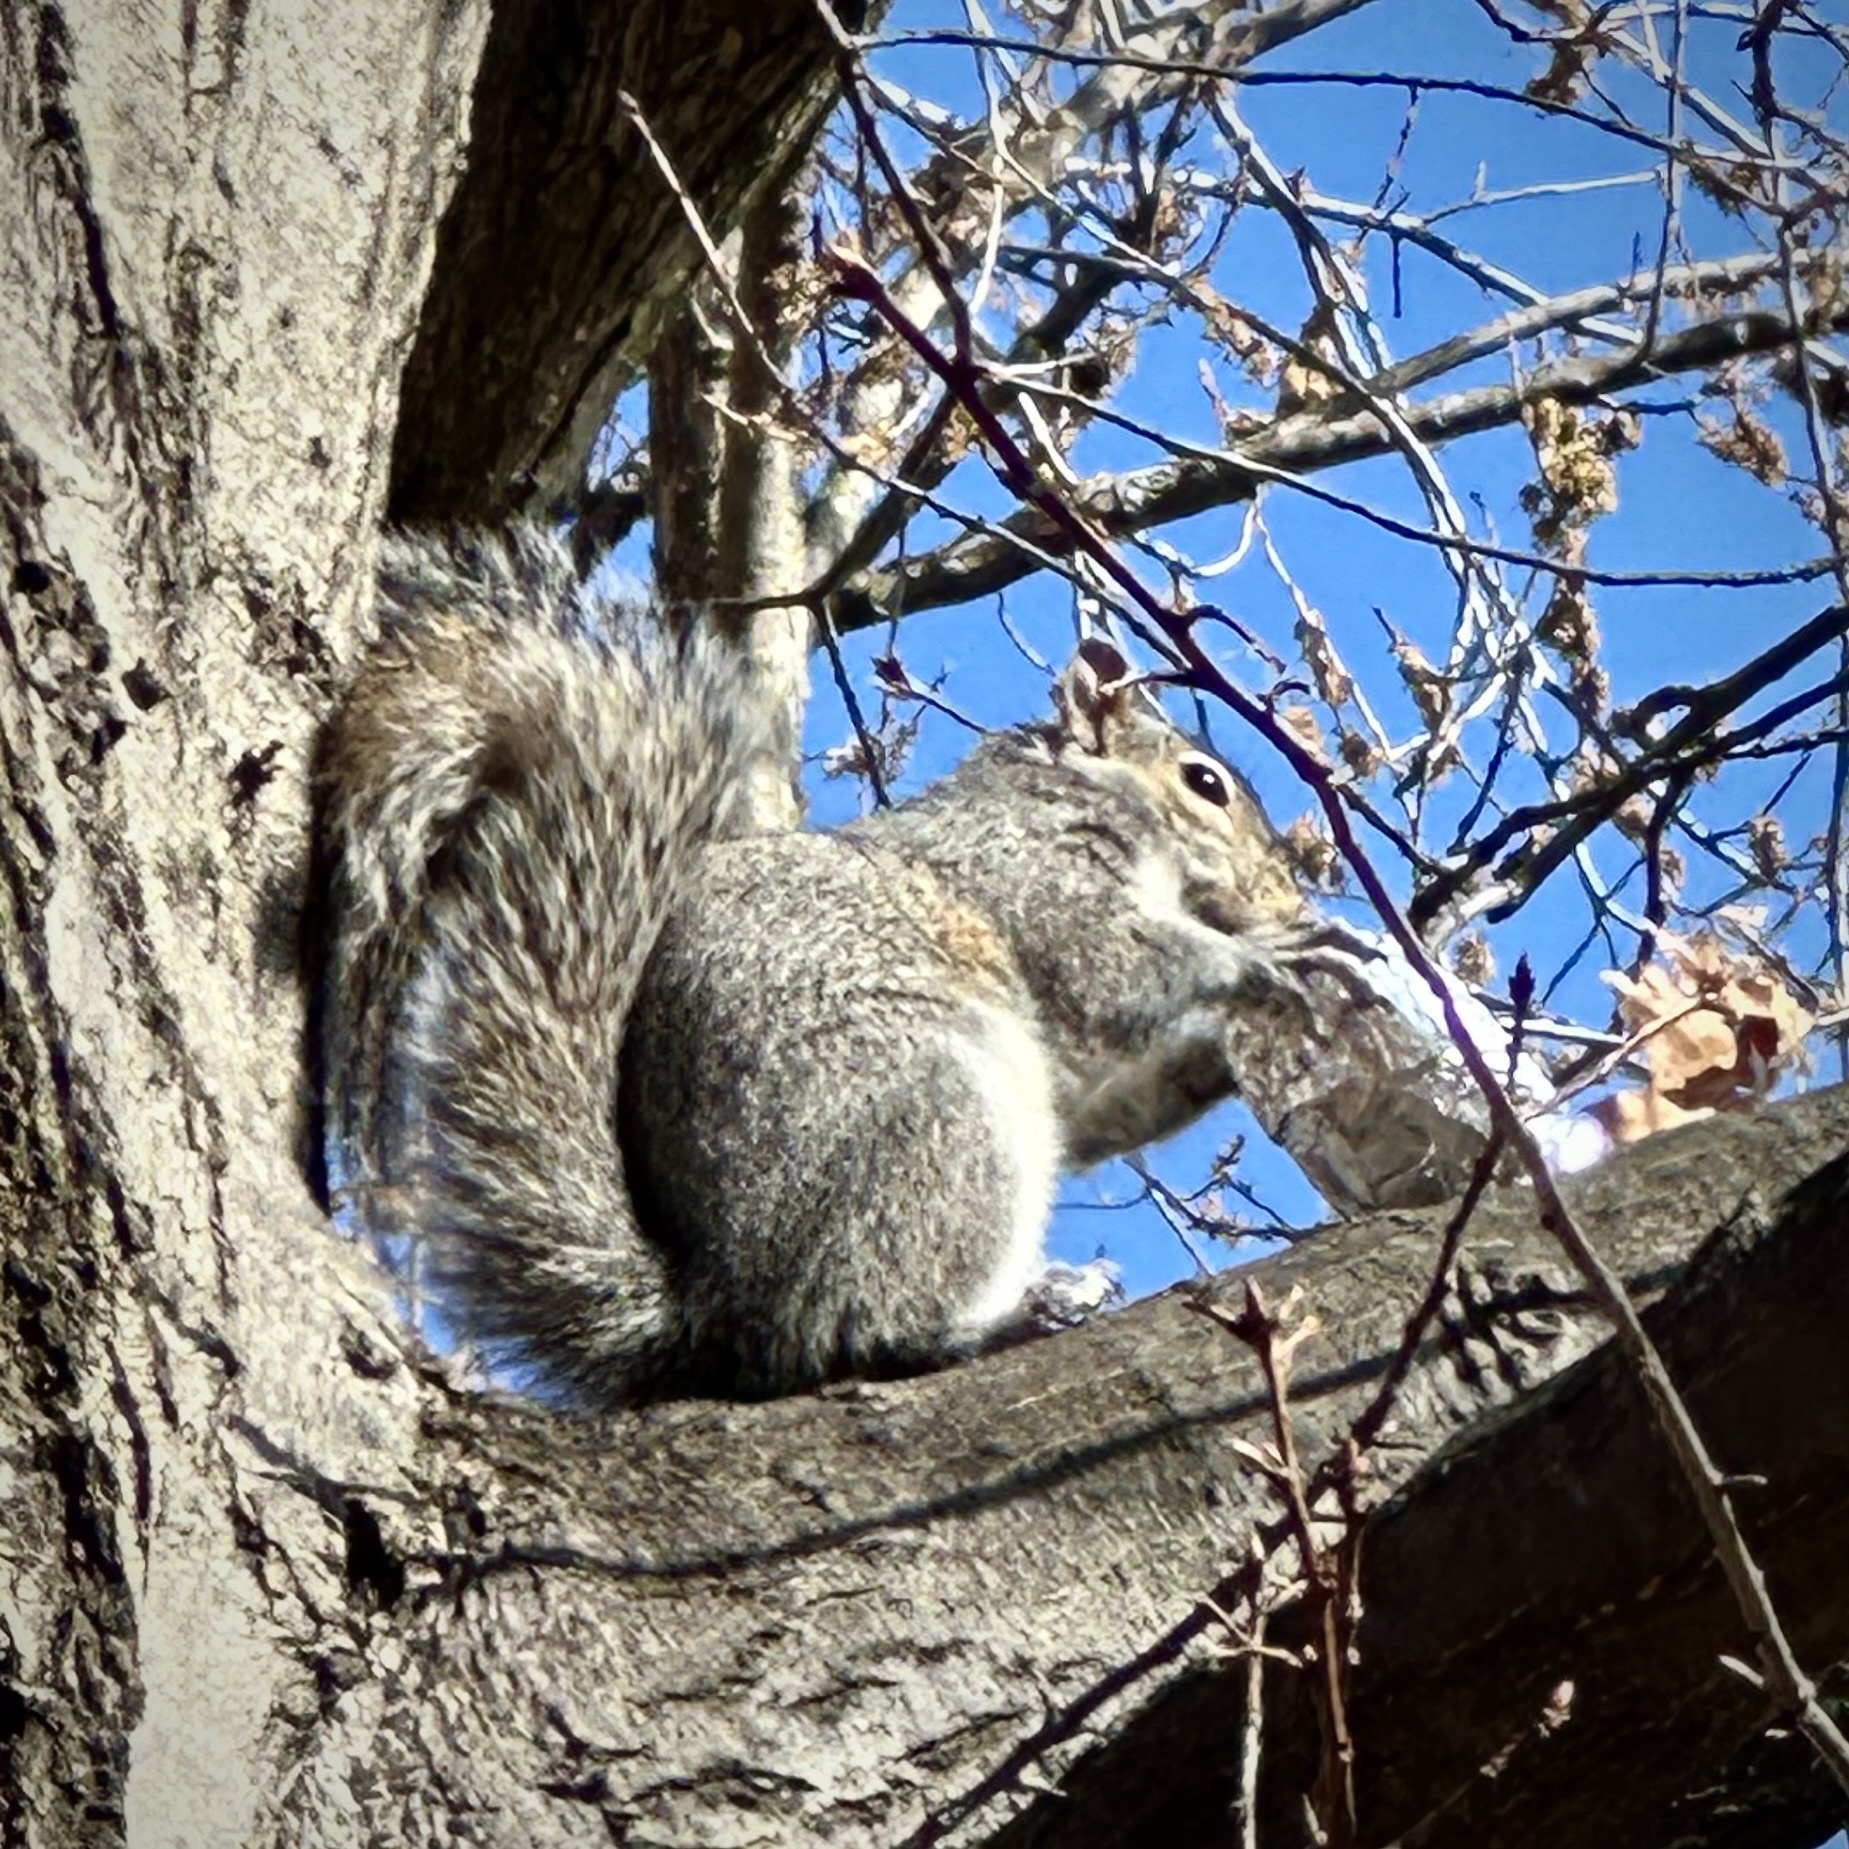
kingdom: Animalia
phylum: Chordata
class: Mammalia
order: Rodentia
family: Sciuridae
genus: Sciurus
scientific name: Sciurus carolinensis
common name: Eastern gray squirrel
